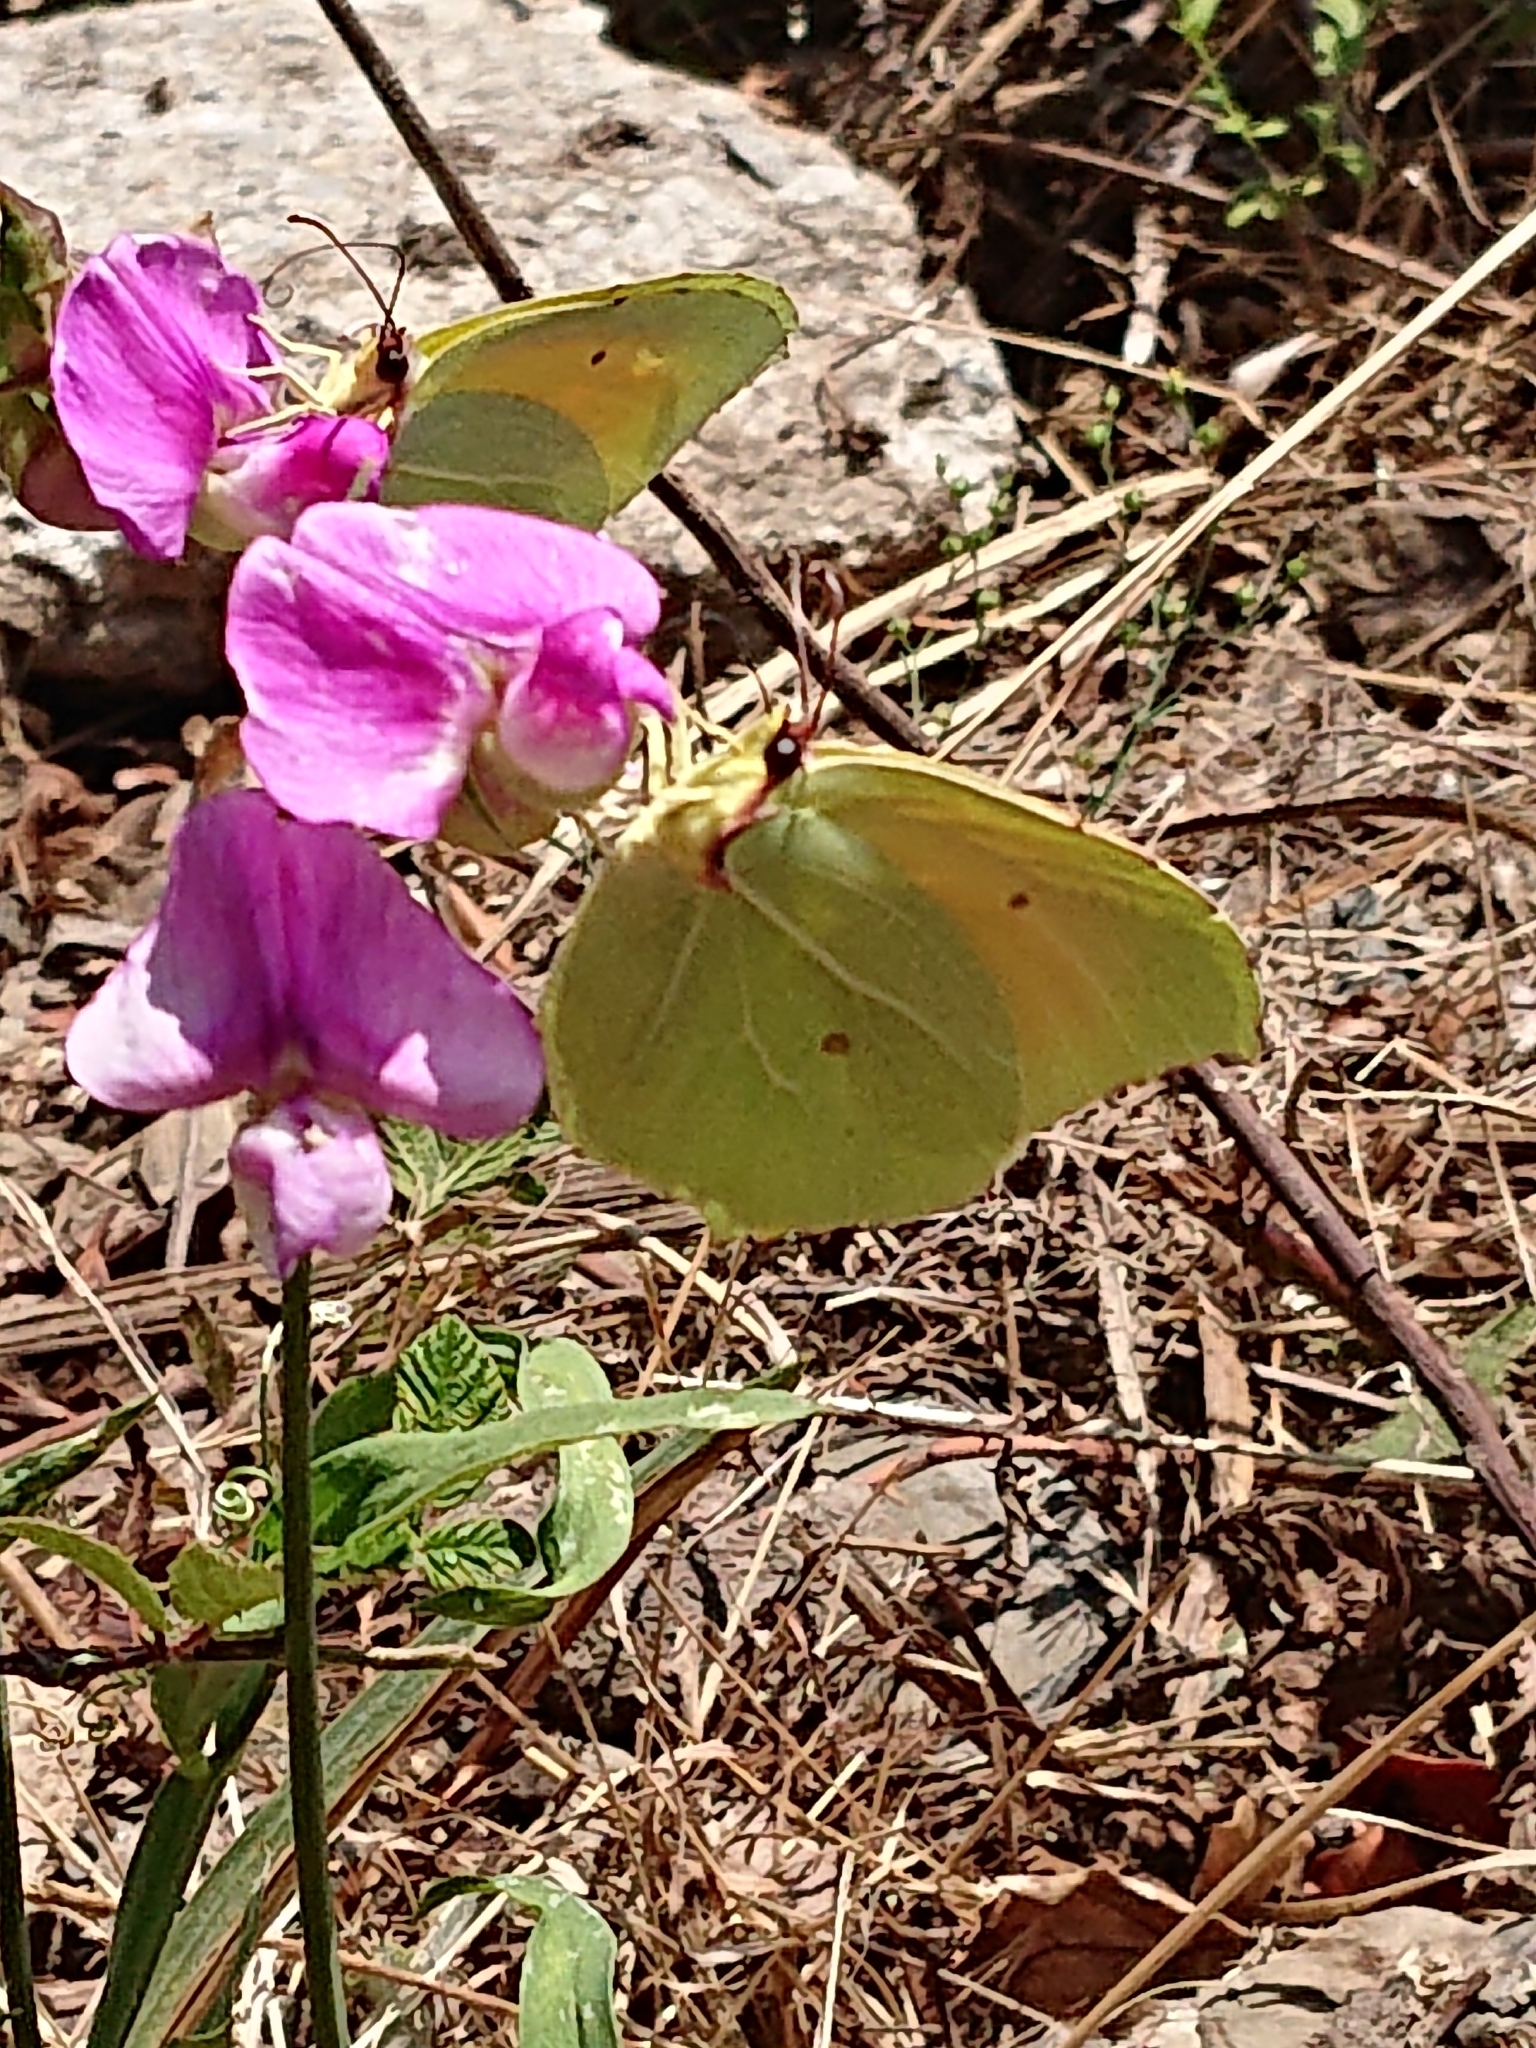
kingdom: Animalia
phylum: Arthropoda
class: Insecta
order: Lepidoptera
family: Pieridae
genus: Gonepteryx
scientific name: Gonepteryx cleopatra
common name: Cleopatra
